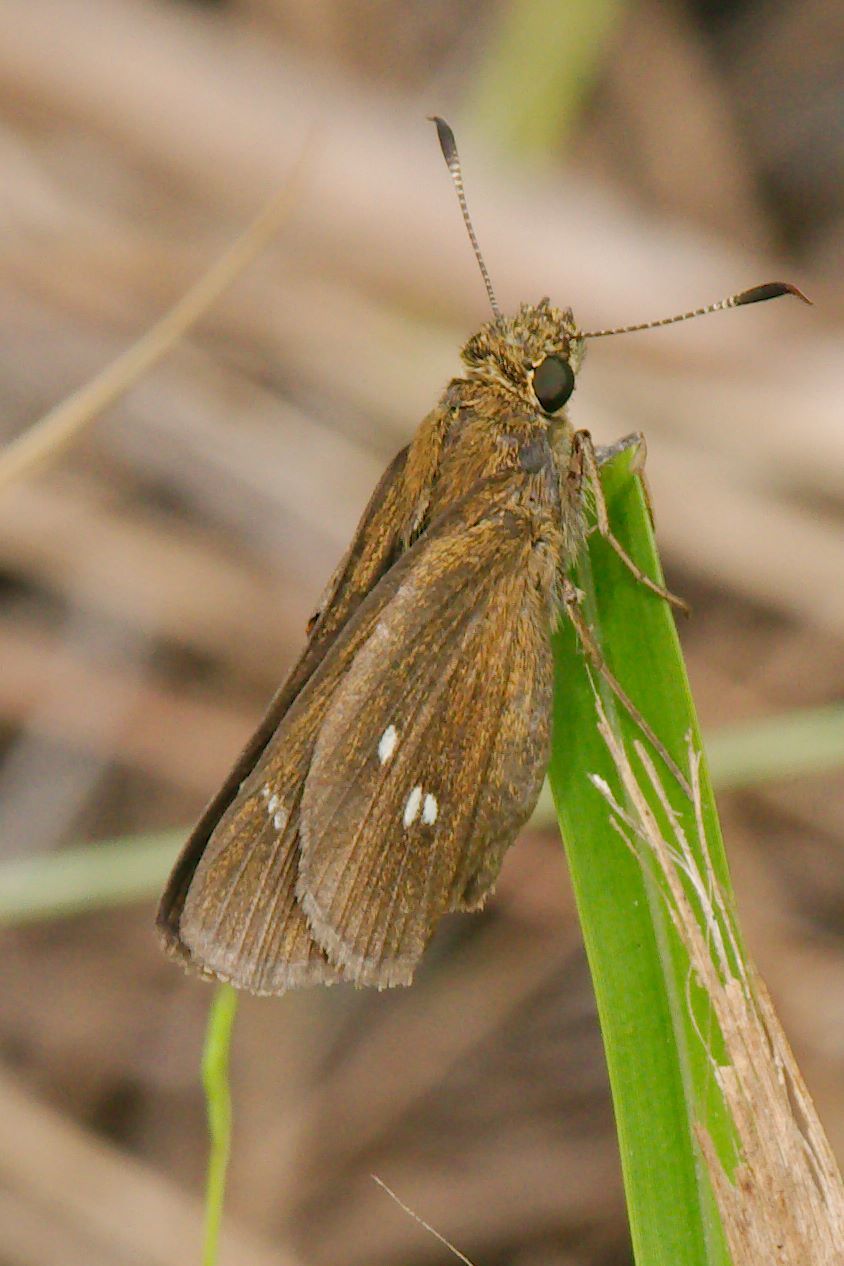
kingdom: Animalia
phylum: Arthropoda
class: Insecta
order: Lepidoptera
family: Hesperiidae
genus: Oligoria
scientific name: Oligoria maculata
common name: Twin-spot skipper
